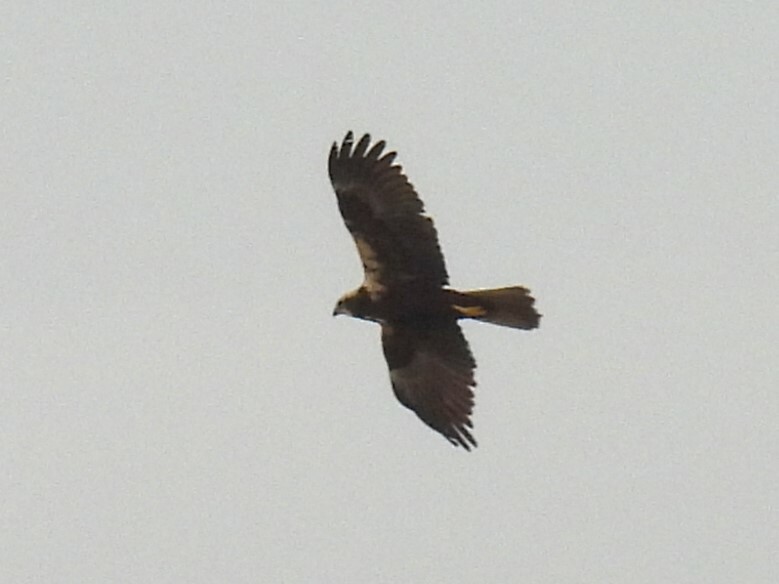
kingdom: Animalia
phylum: Chordata
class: Aves
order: Accipitriformes
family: Accipitridae
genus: Circus
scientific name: Circus aeruginosus
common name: Western marsh harrier
